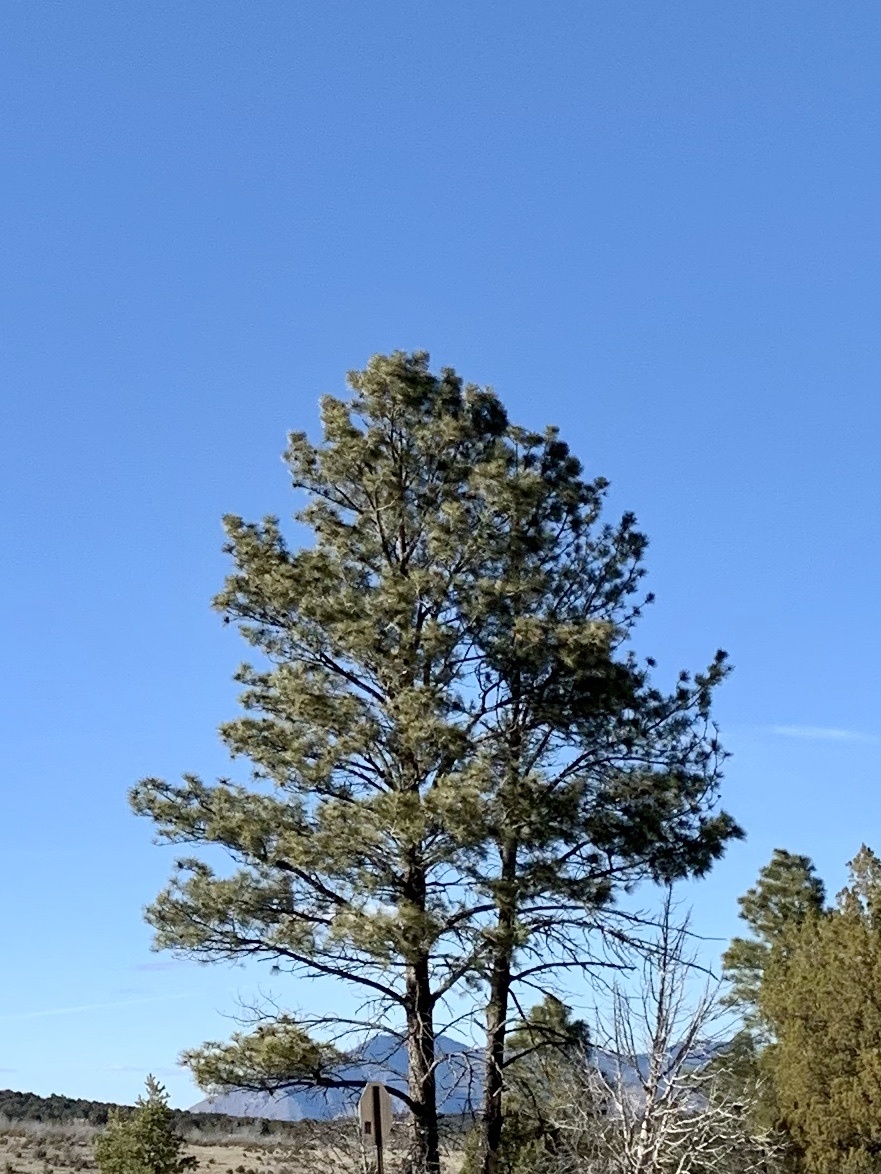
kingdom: Plantae
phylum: Tracheophyta
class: Pinopsida
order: Pinales
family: Pinaceae
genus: Pinus
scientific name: Pinus ponderosa
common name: Western yellow-pine
